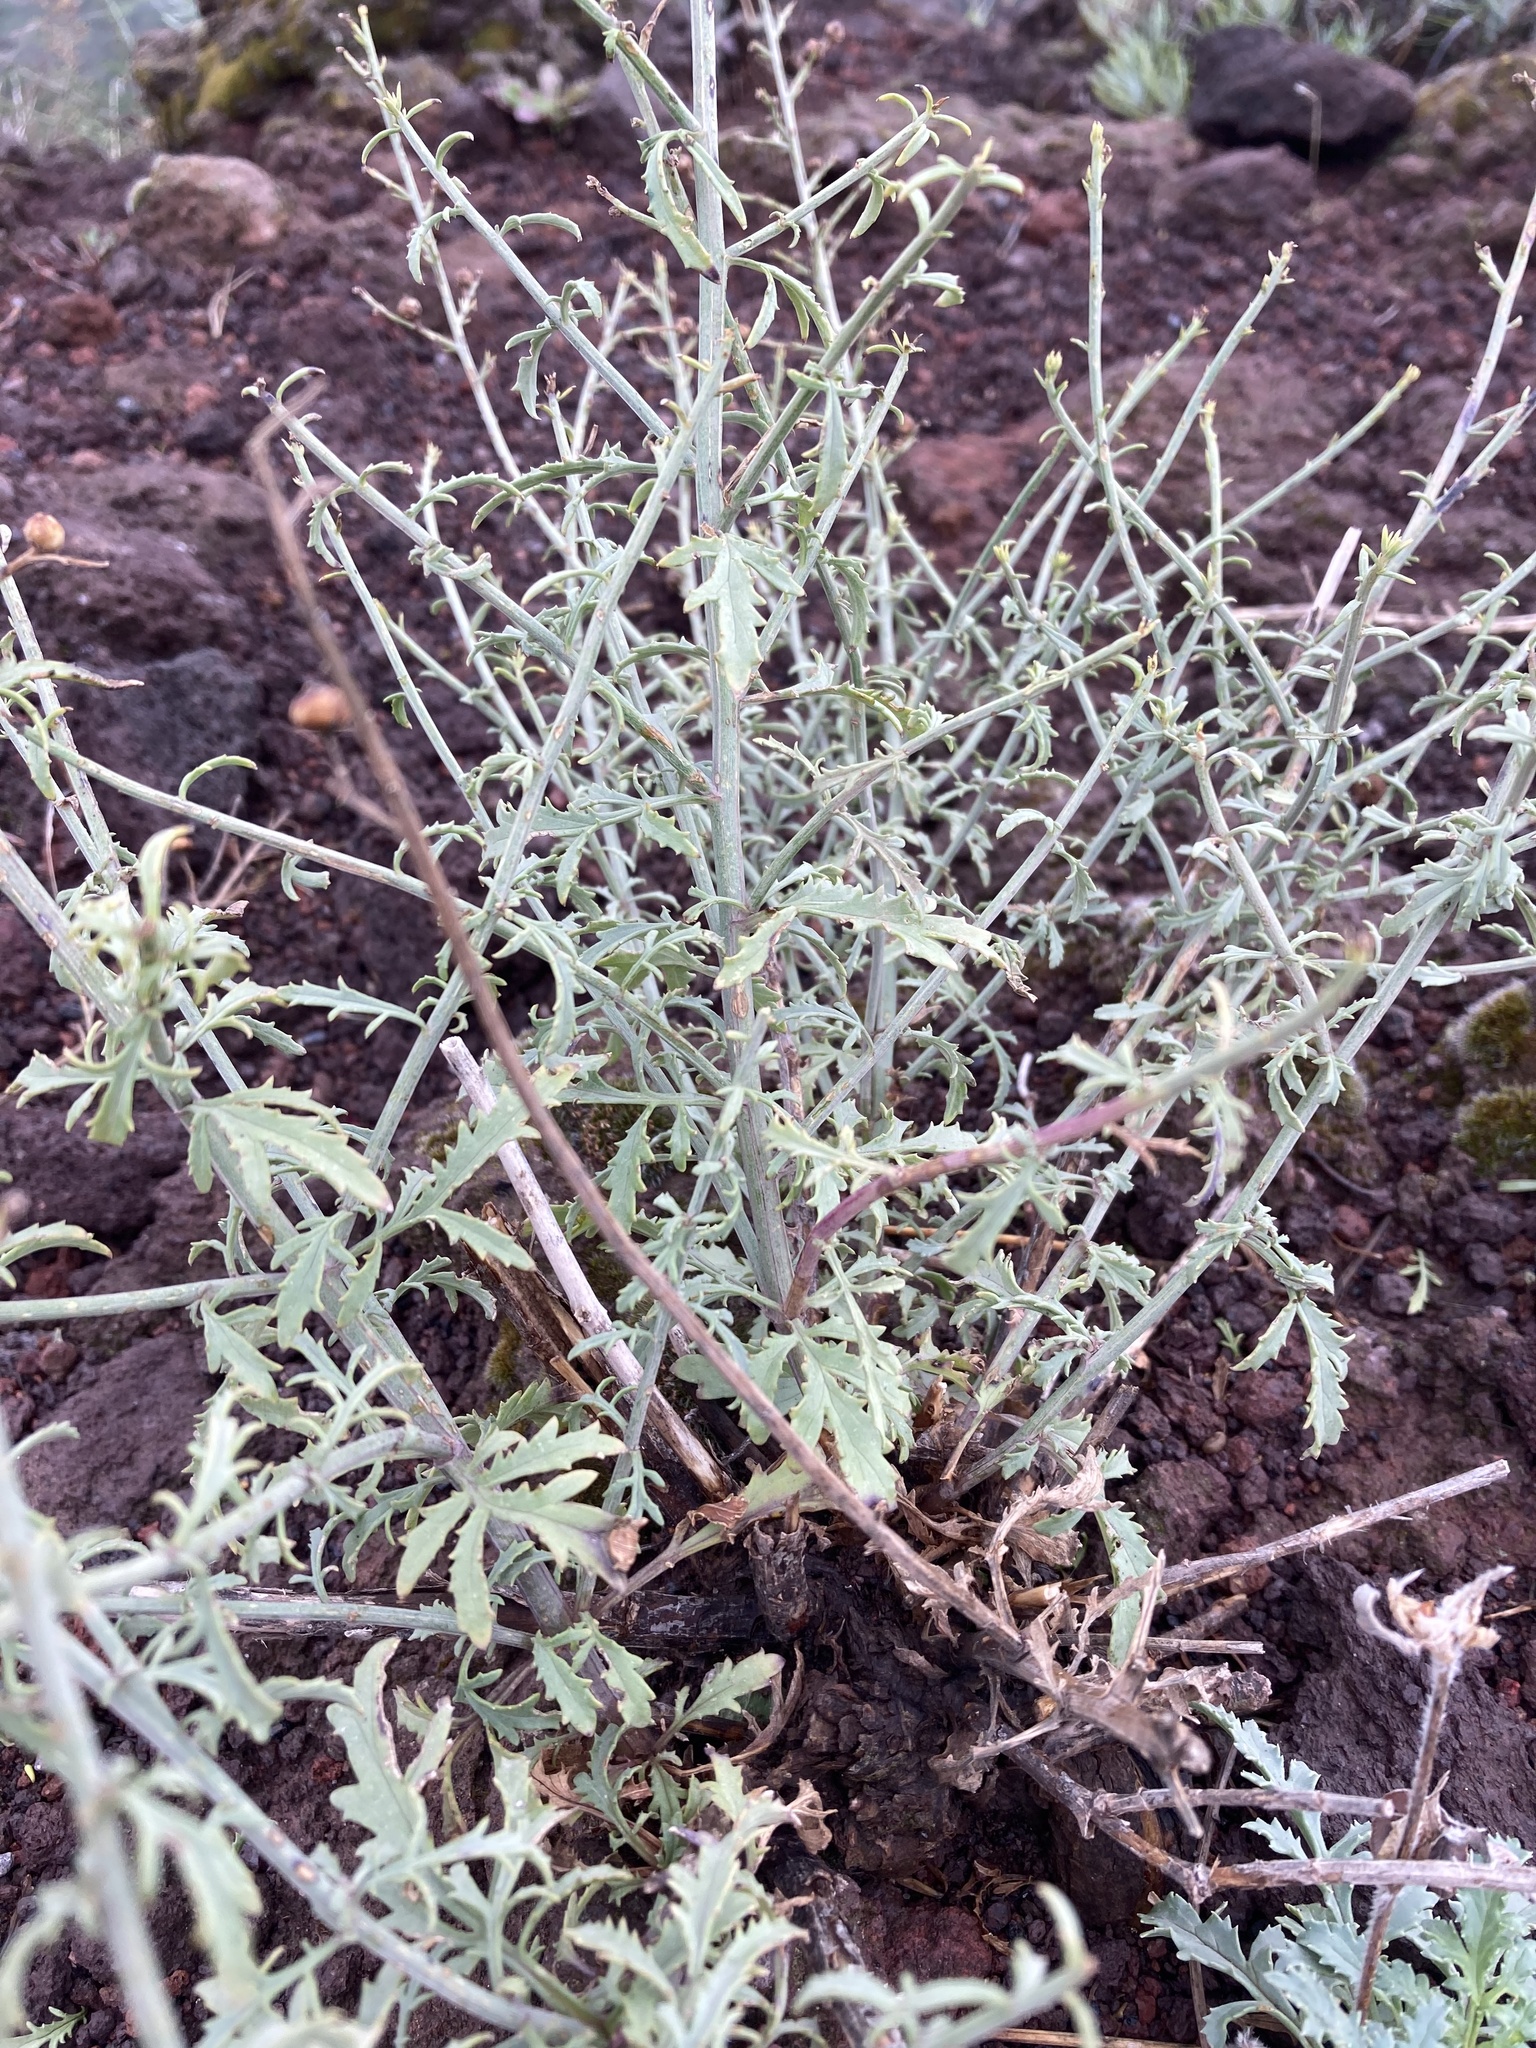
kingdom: Plantae
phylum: Tracheophyta
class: Magnoliopsida
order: Lamiales
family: Scrophulariaceae
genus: Scrophularia
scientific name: Scrophularia canina
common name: French figwort
